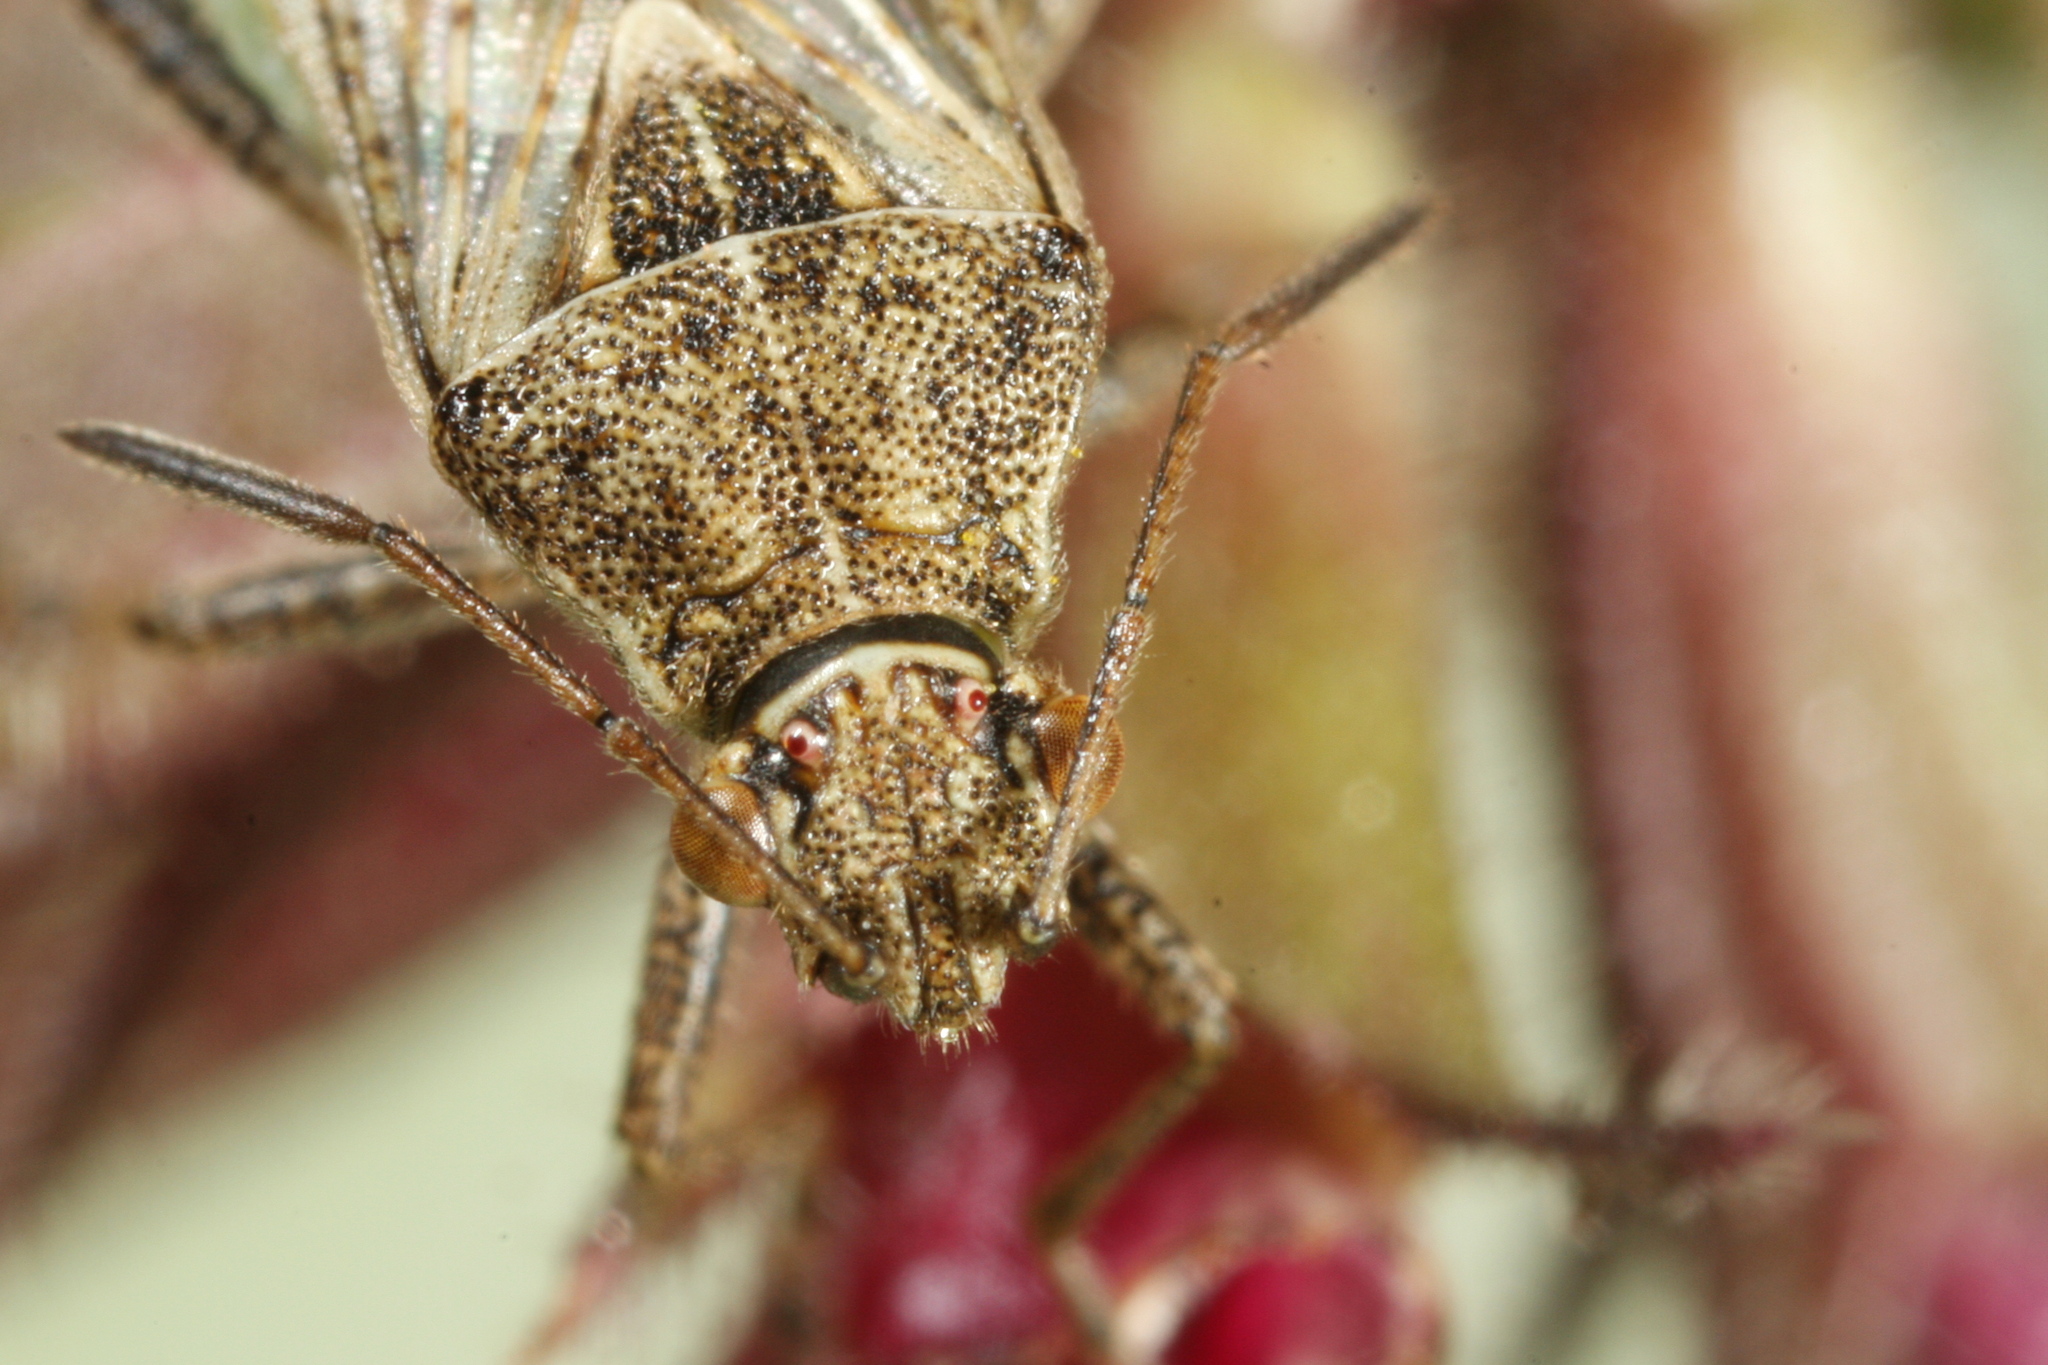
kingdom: Animalia
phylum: Arthropoda
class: Insecta
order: Hemiptera
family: Rhopalidae
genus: Stictopleurus
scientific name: Stictopleurus punctatonervosus
